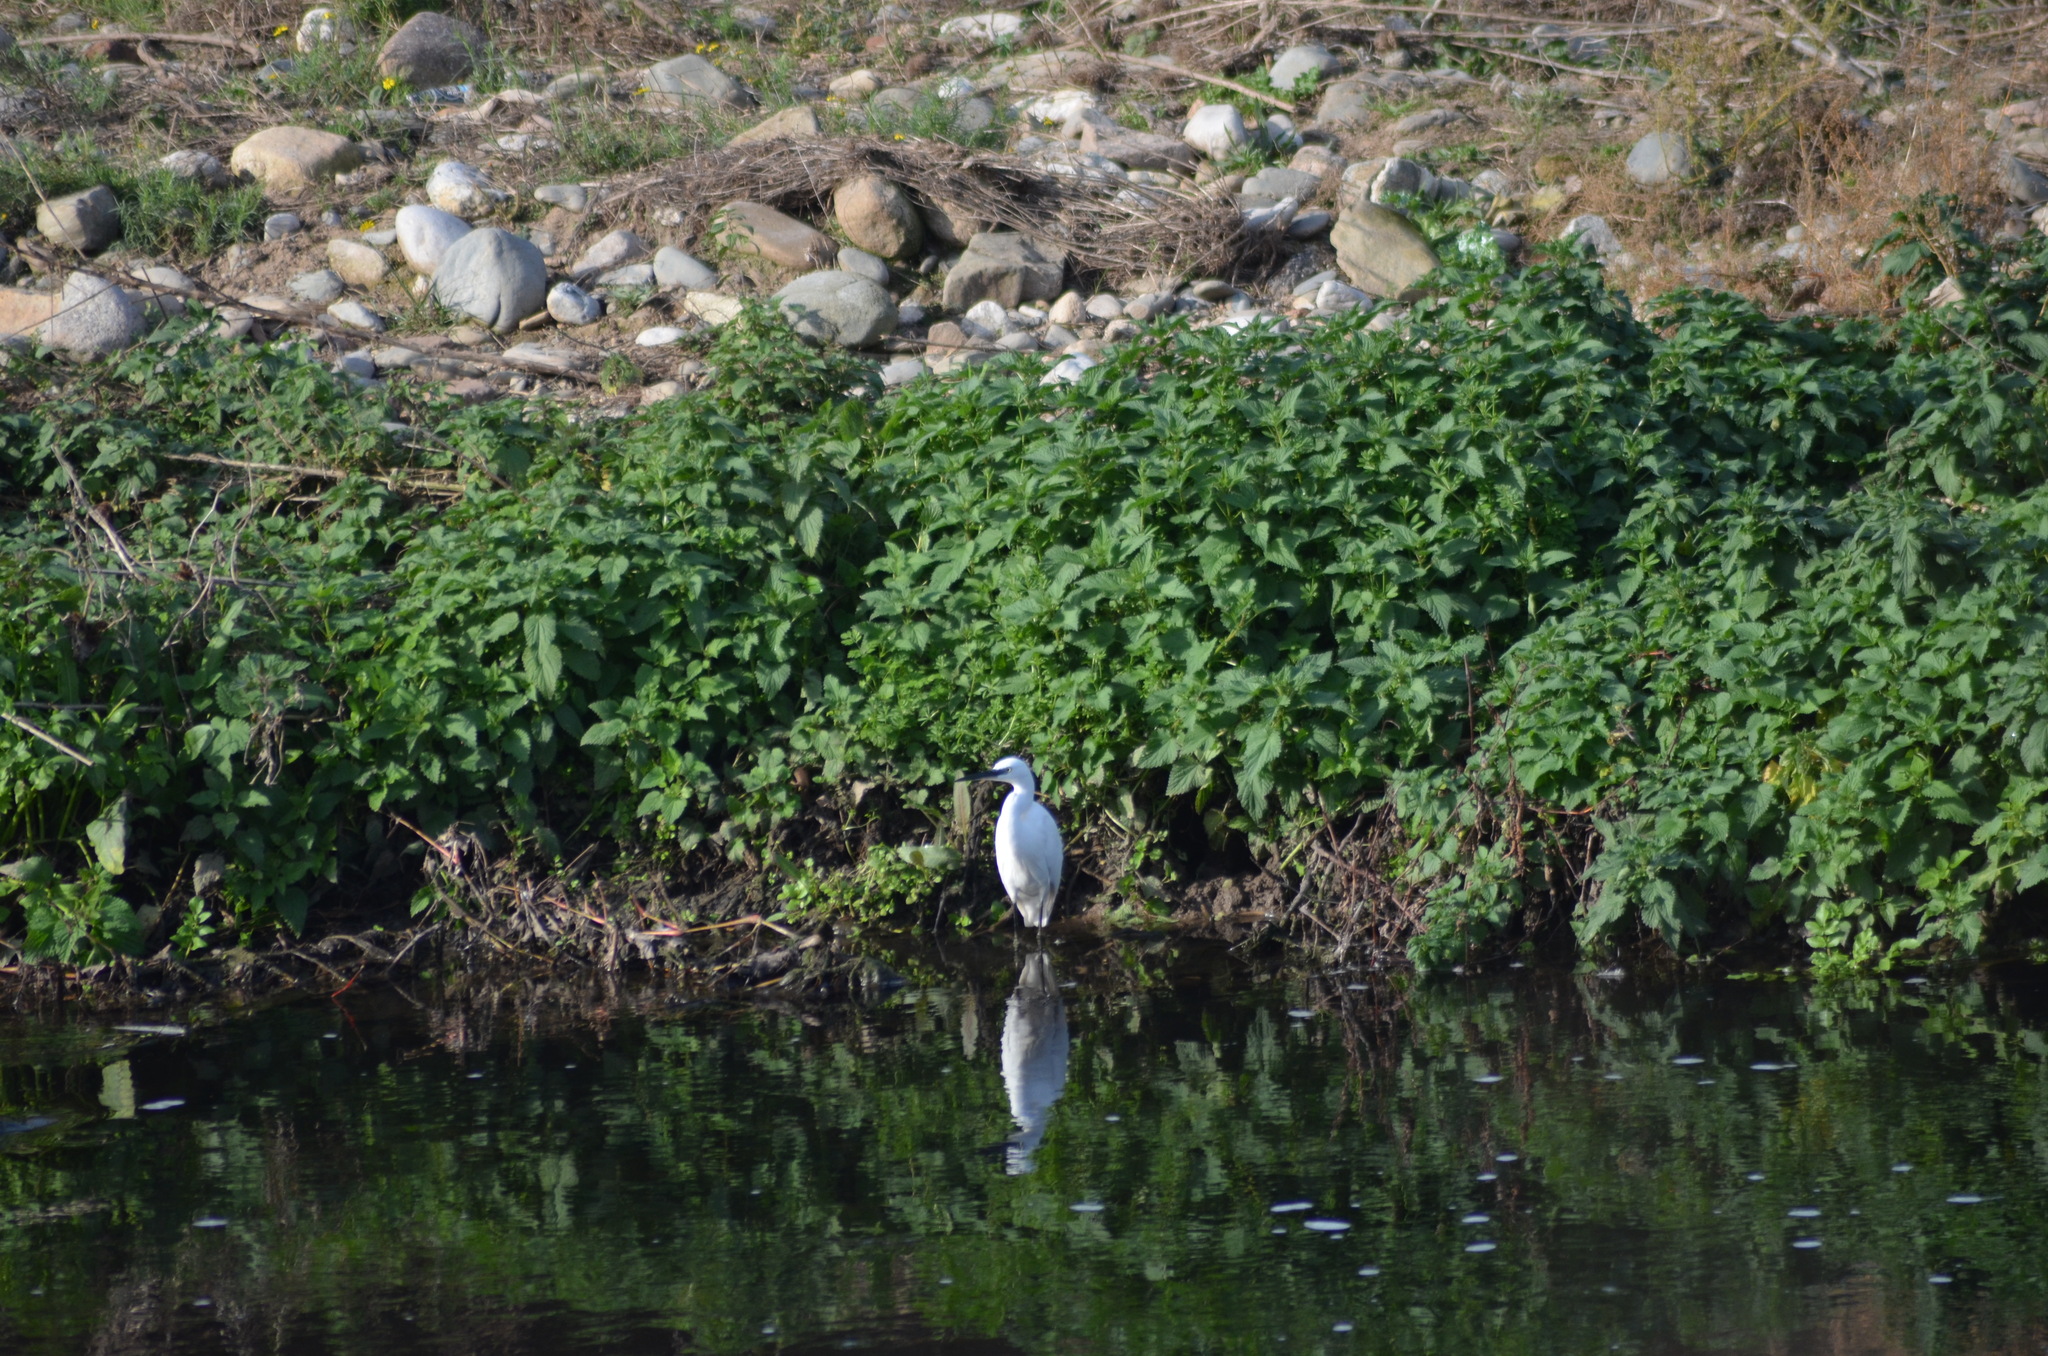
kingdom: Animalia
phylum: Chordata
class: Aves
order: Pelecaniformes
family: Ardeidae
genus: Egretta
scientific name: Egretta garzetta
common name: Little egret
